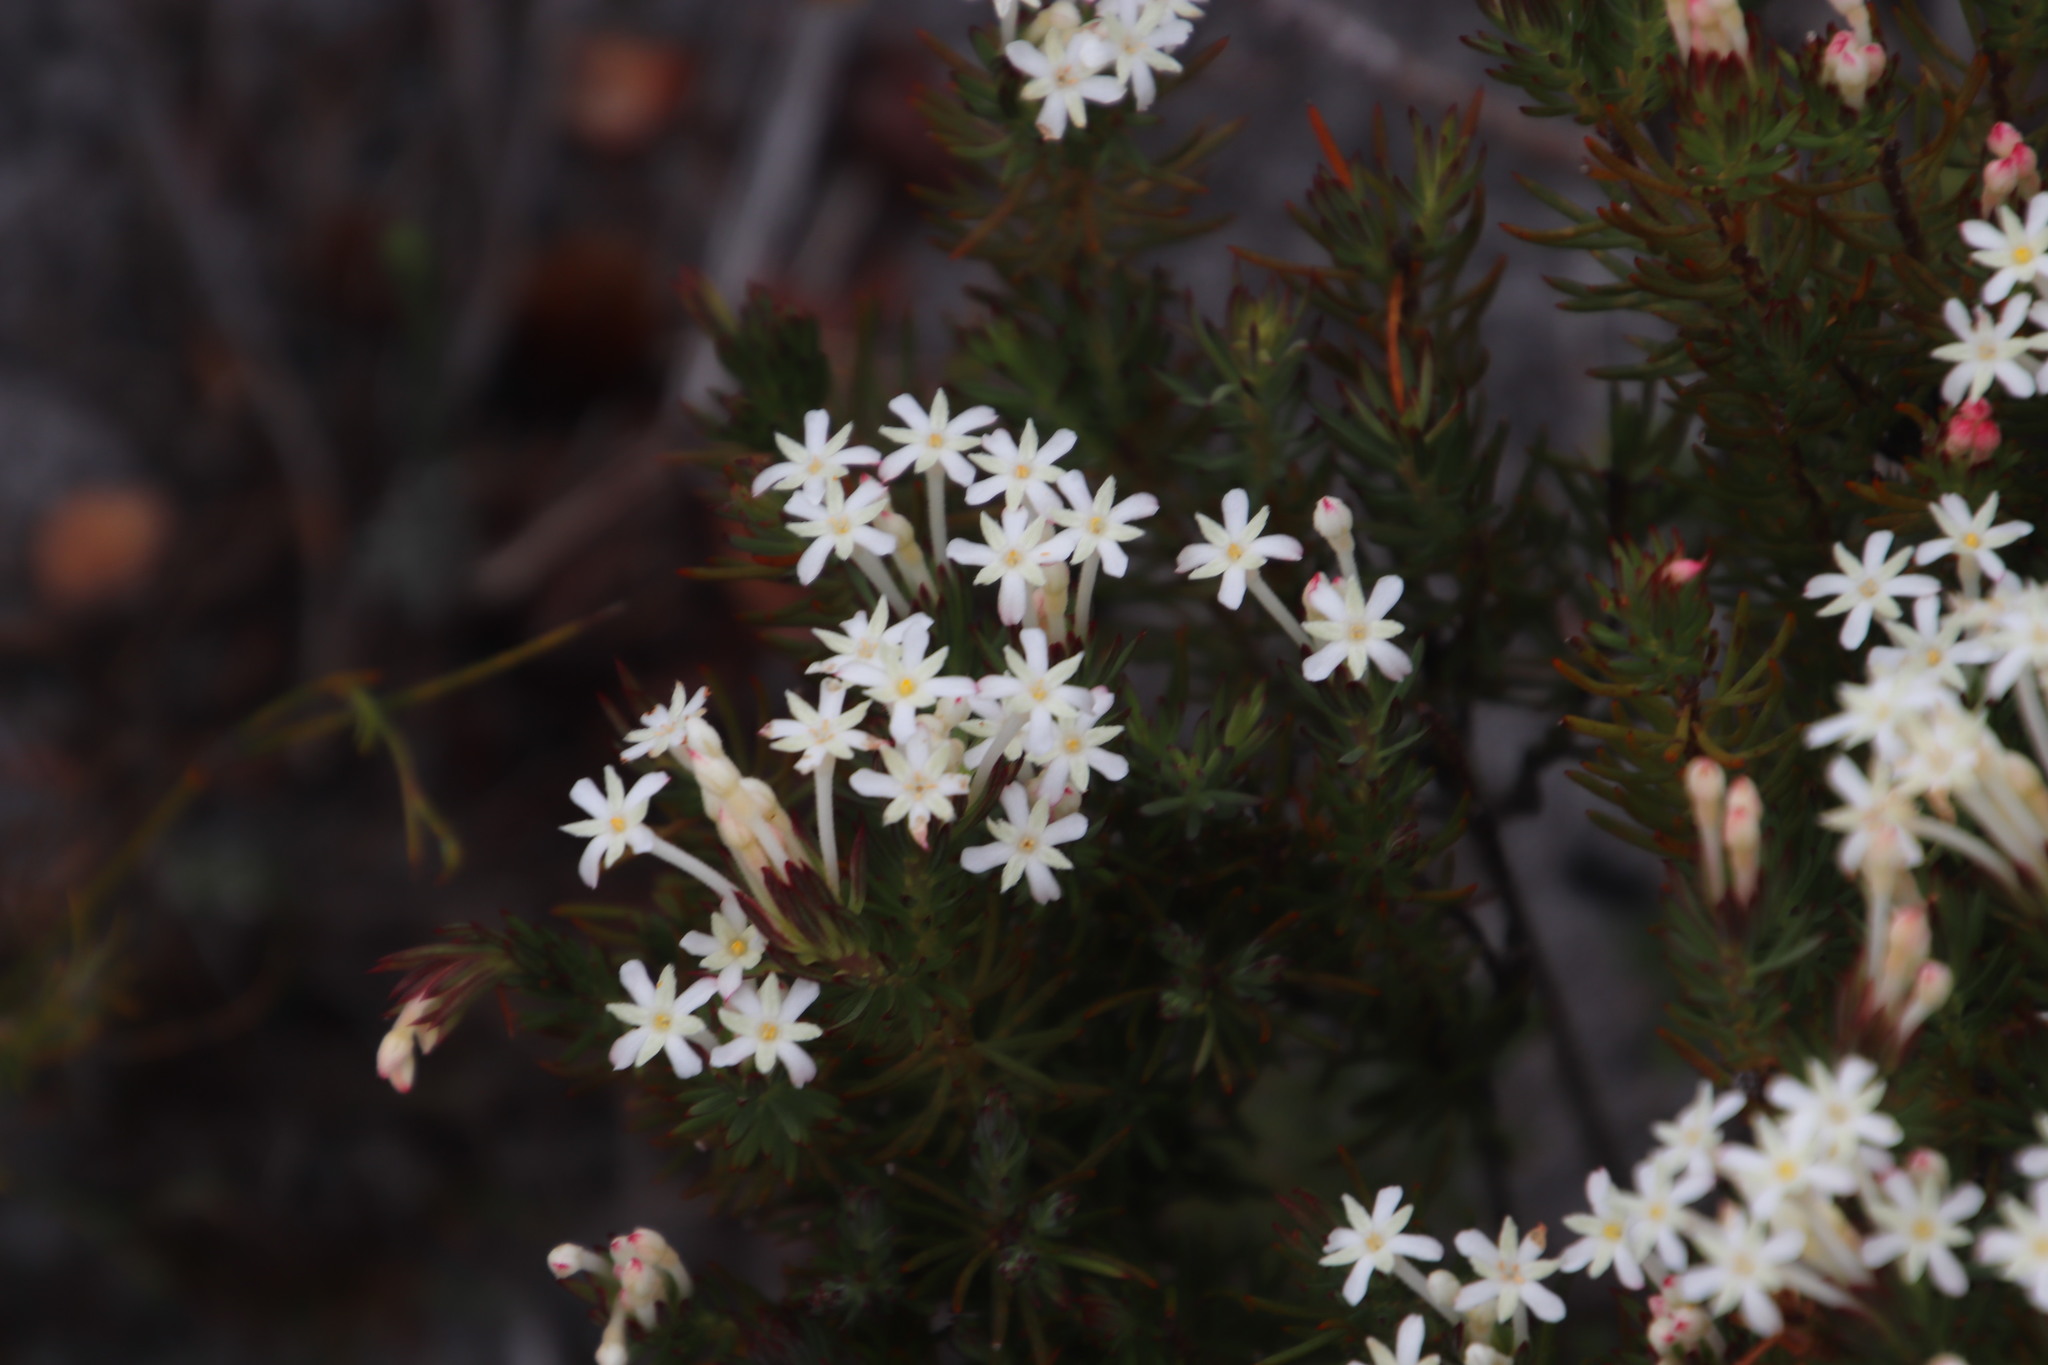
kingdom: Plantae
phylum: Tracheophyta
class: Magnoliopsida
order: Malvales
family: Thymelaeaceae
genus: Gnidia
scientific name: Gnidia pinifolia
